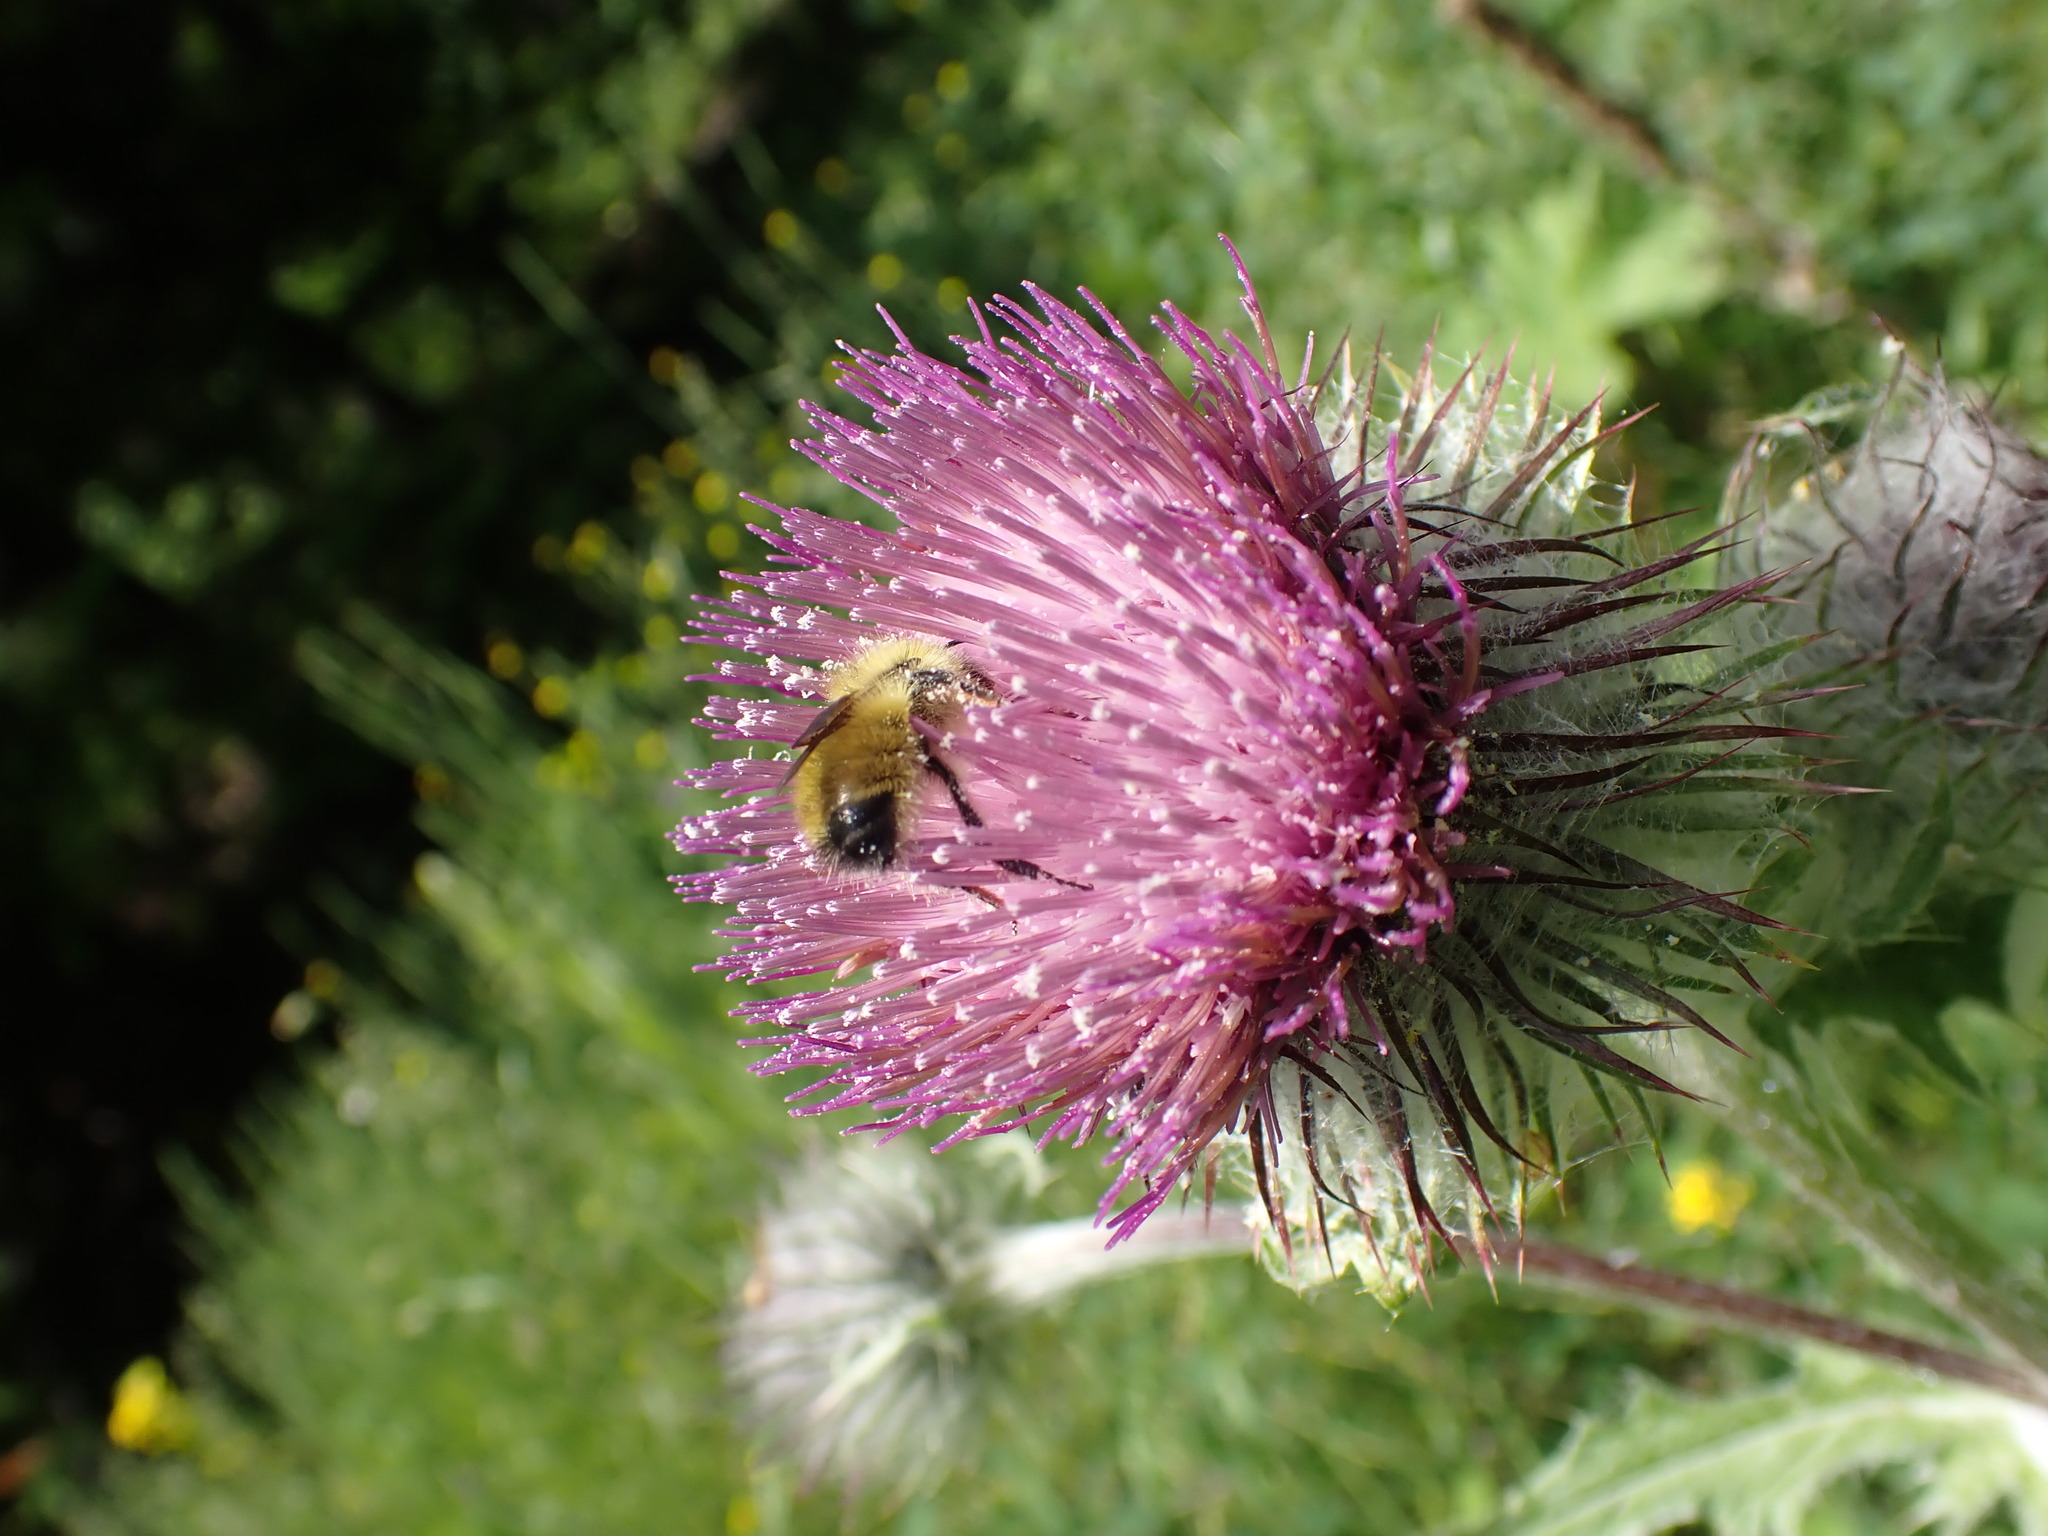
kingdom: Plantae
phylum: Tracheophyta
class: Magnoliopsida
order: Asterales
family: Asteraceae
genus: Cirsium
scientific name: Cirsium edule
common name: Indian thistle
